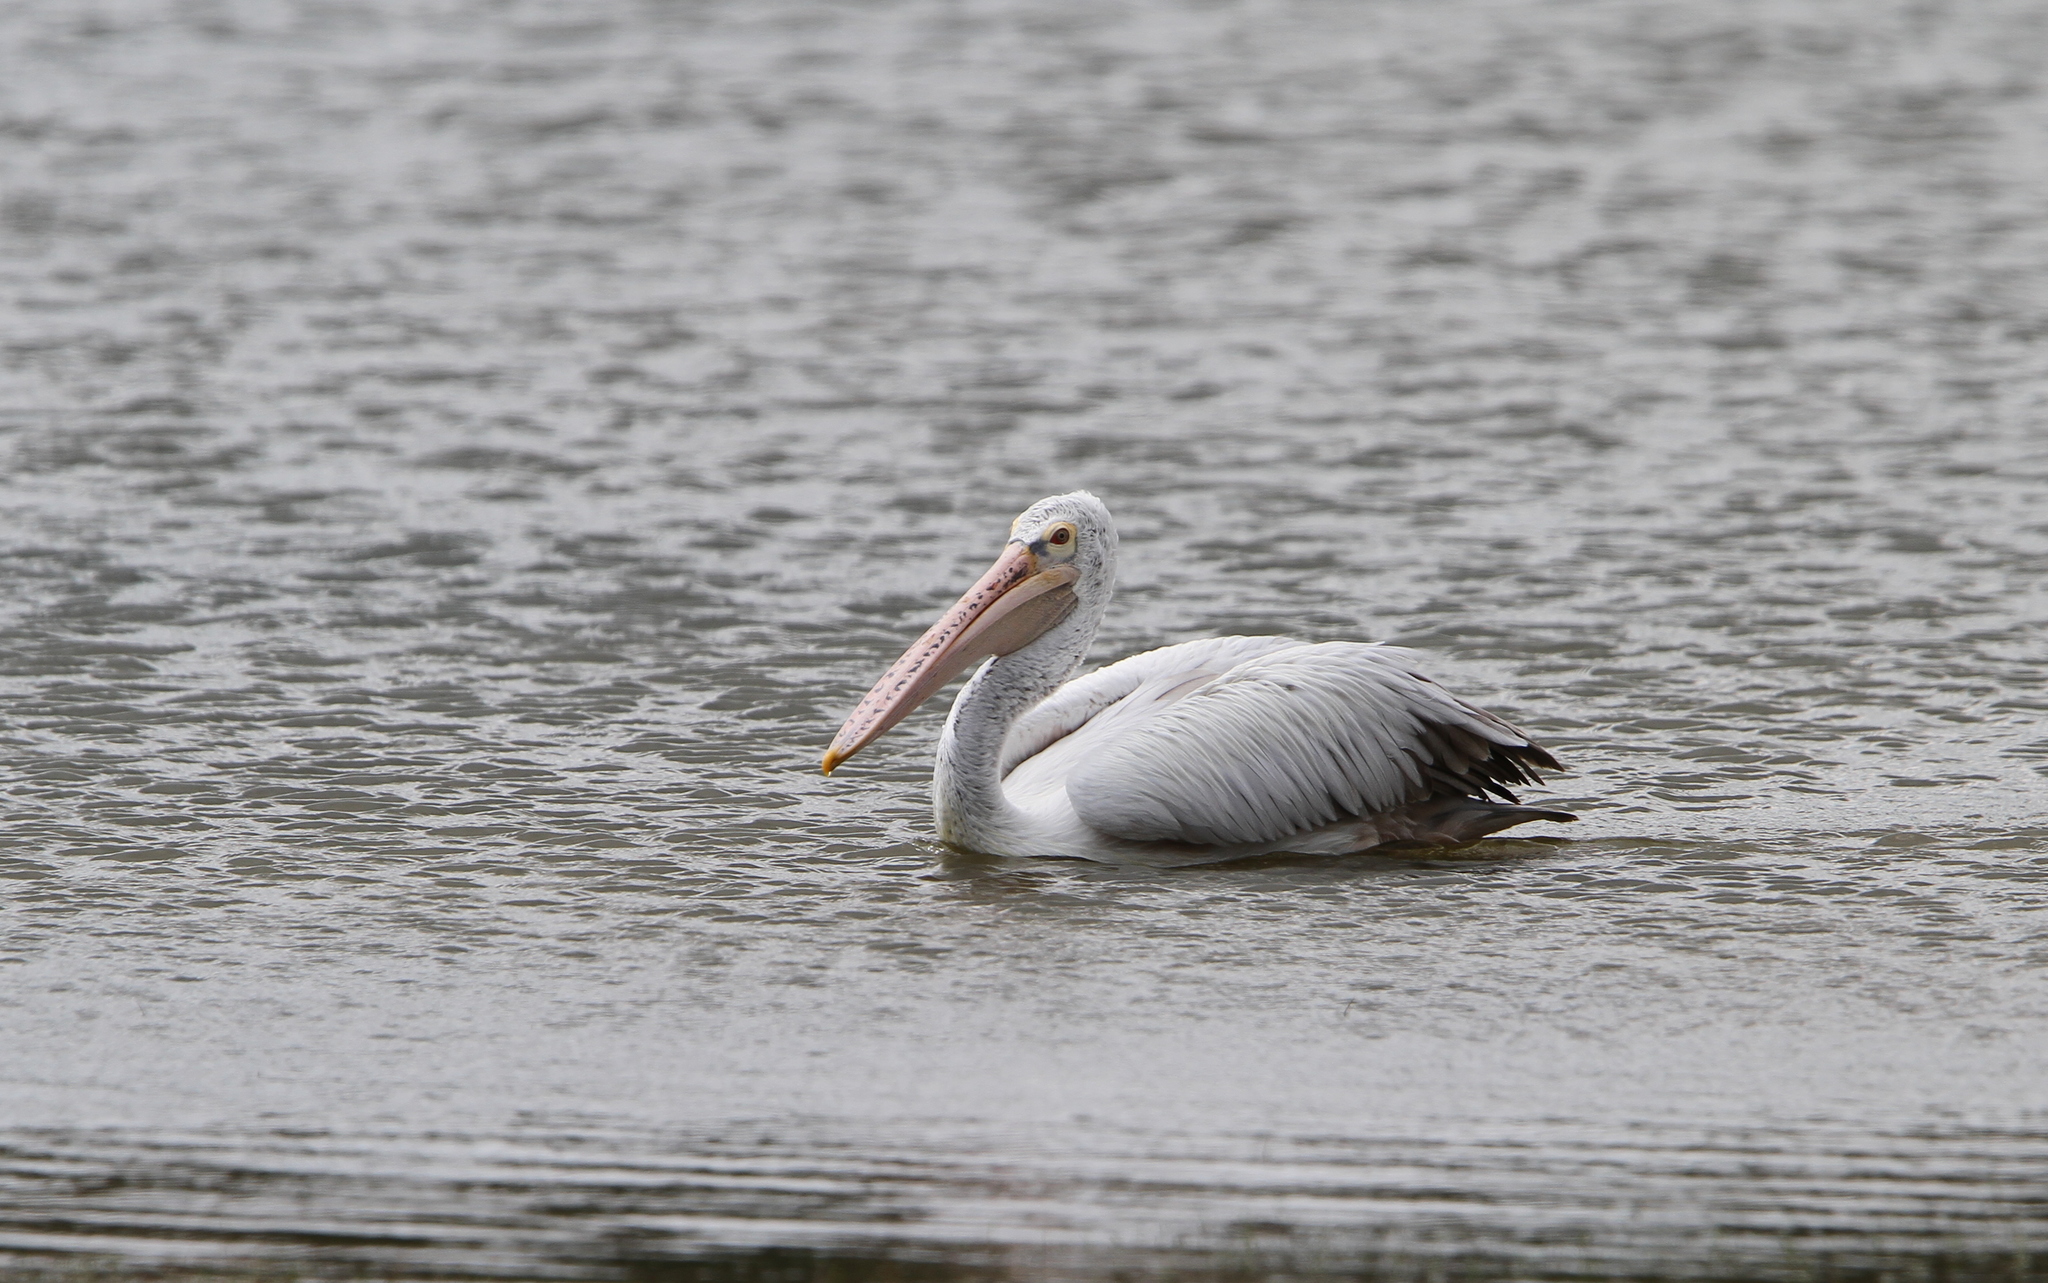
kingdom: Animalia
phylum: Chordata
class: Aves
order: Pelecaniformes
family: Pelecanidae
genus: Pelecanus
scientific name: Pelecanus philippensis
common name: Spot-billed pelican
